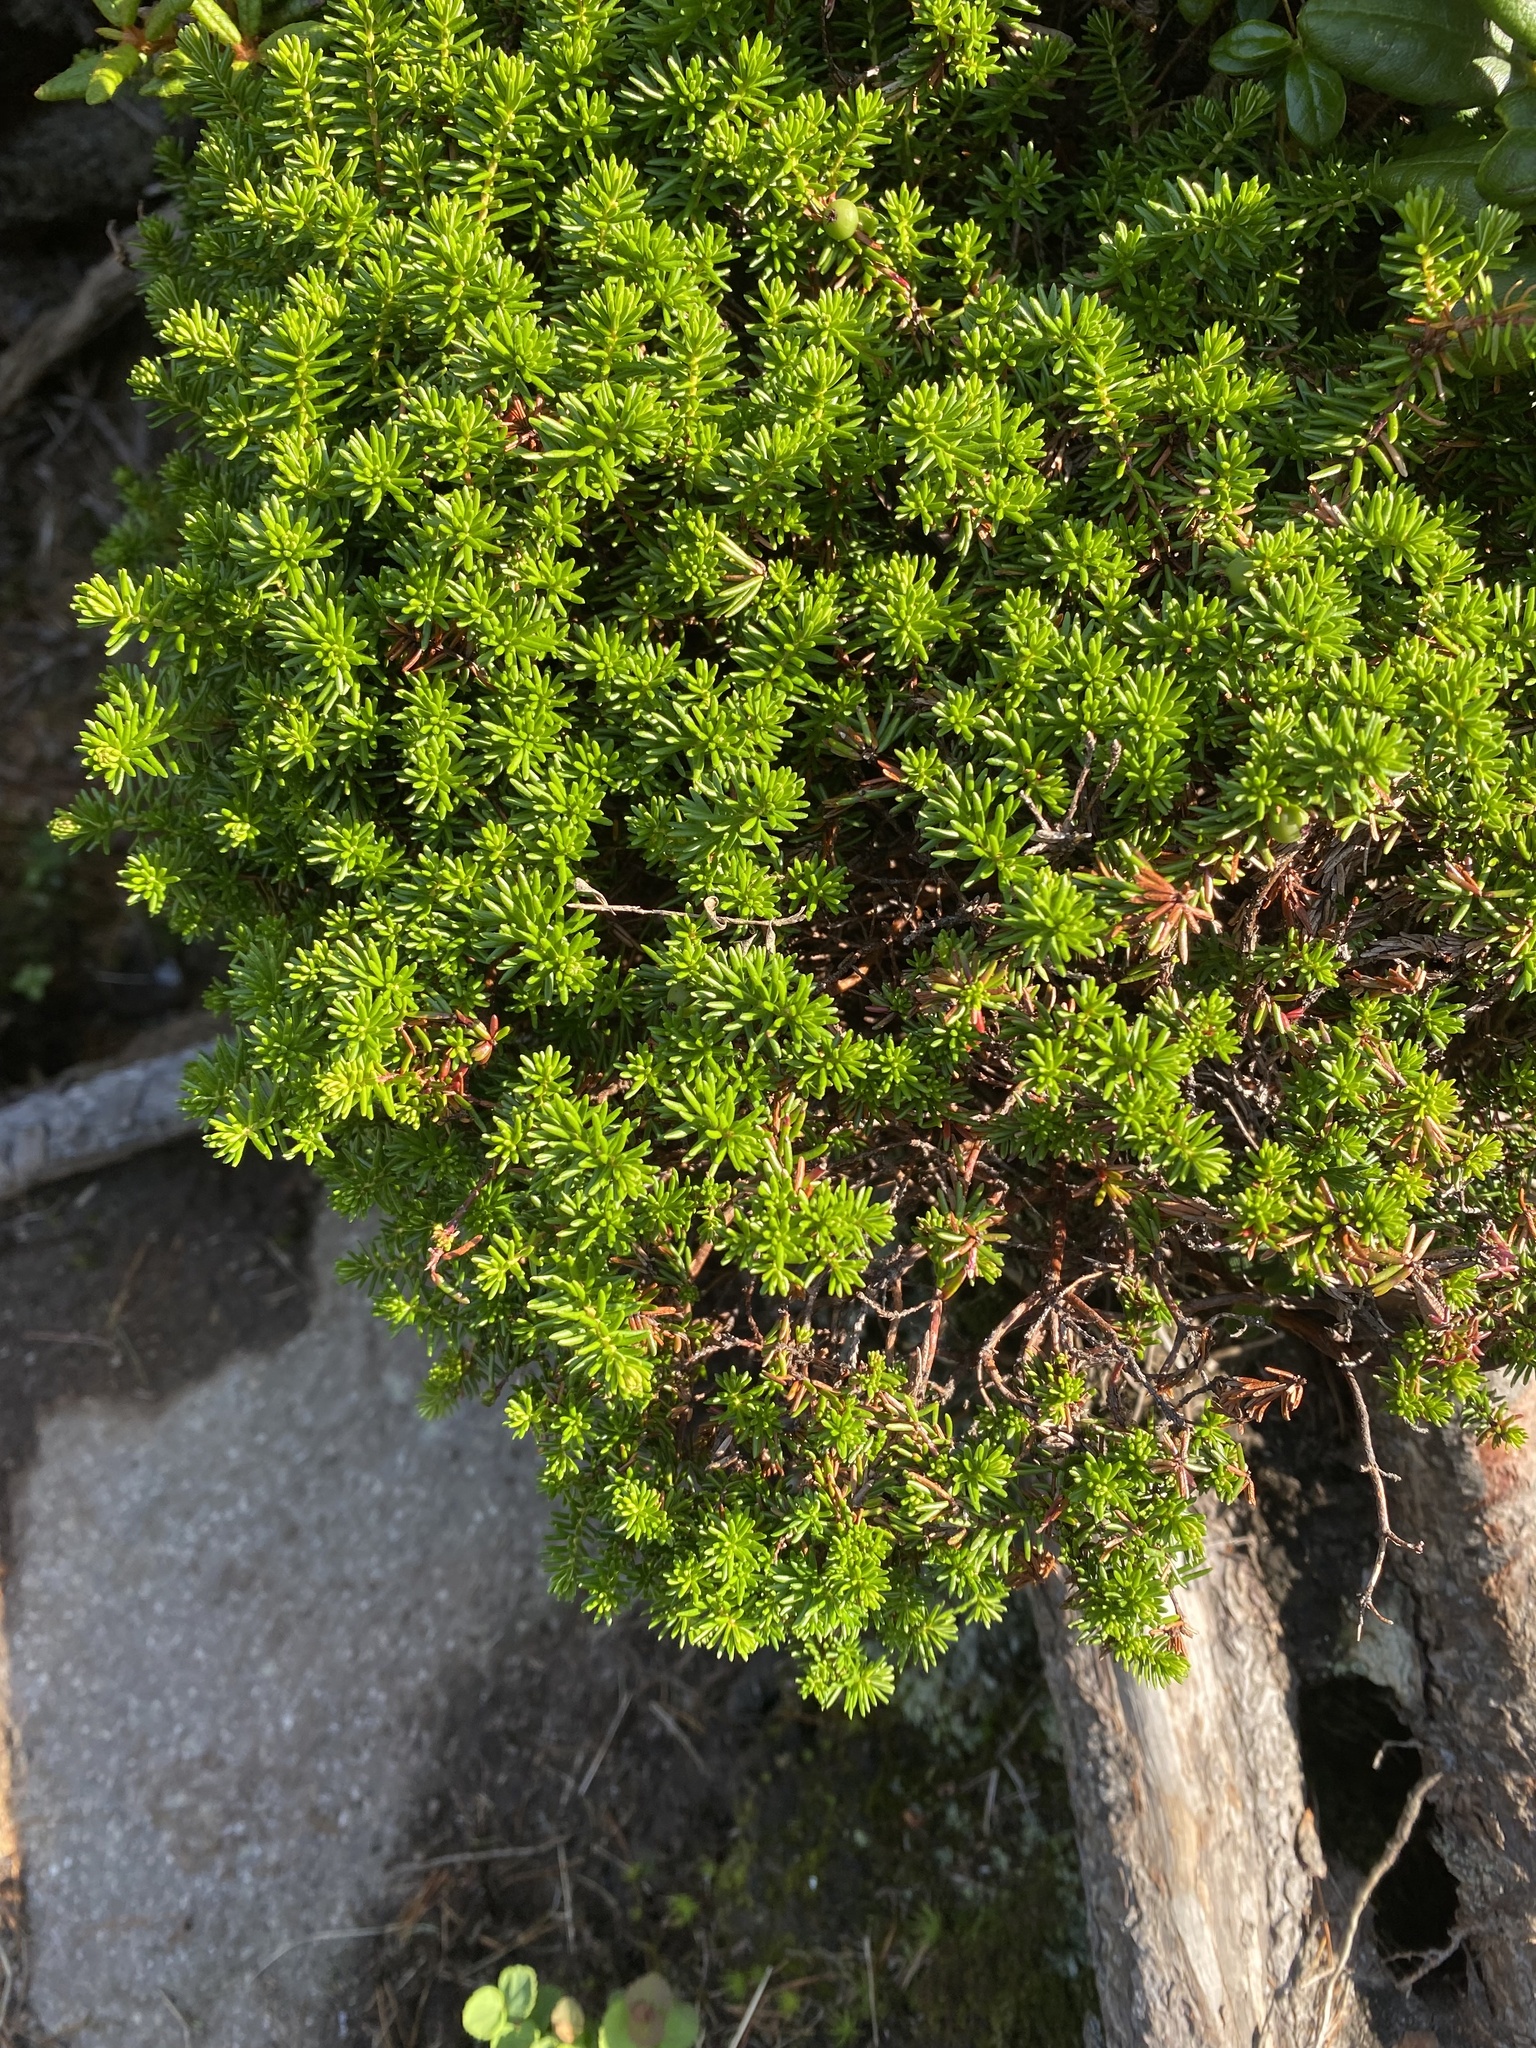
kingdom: Plantae
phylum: Tracheophyta
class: Magnoliopsida
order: Ericales
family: Ericaceae
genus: Empetrum
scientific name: Empetrum nigrum
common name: Black crowberry
